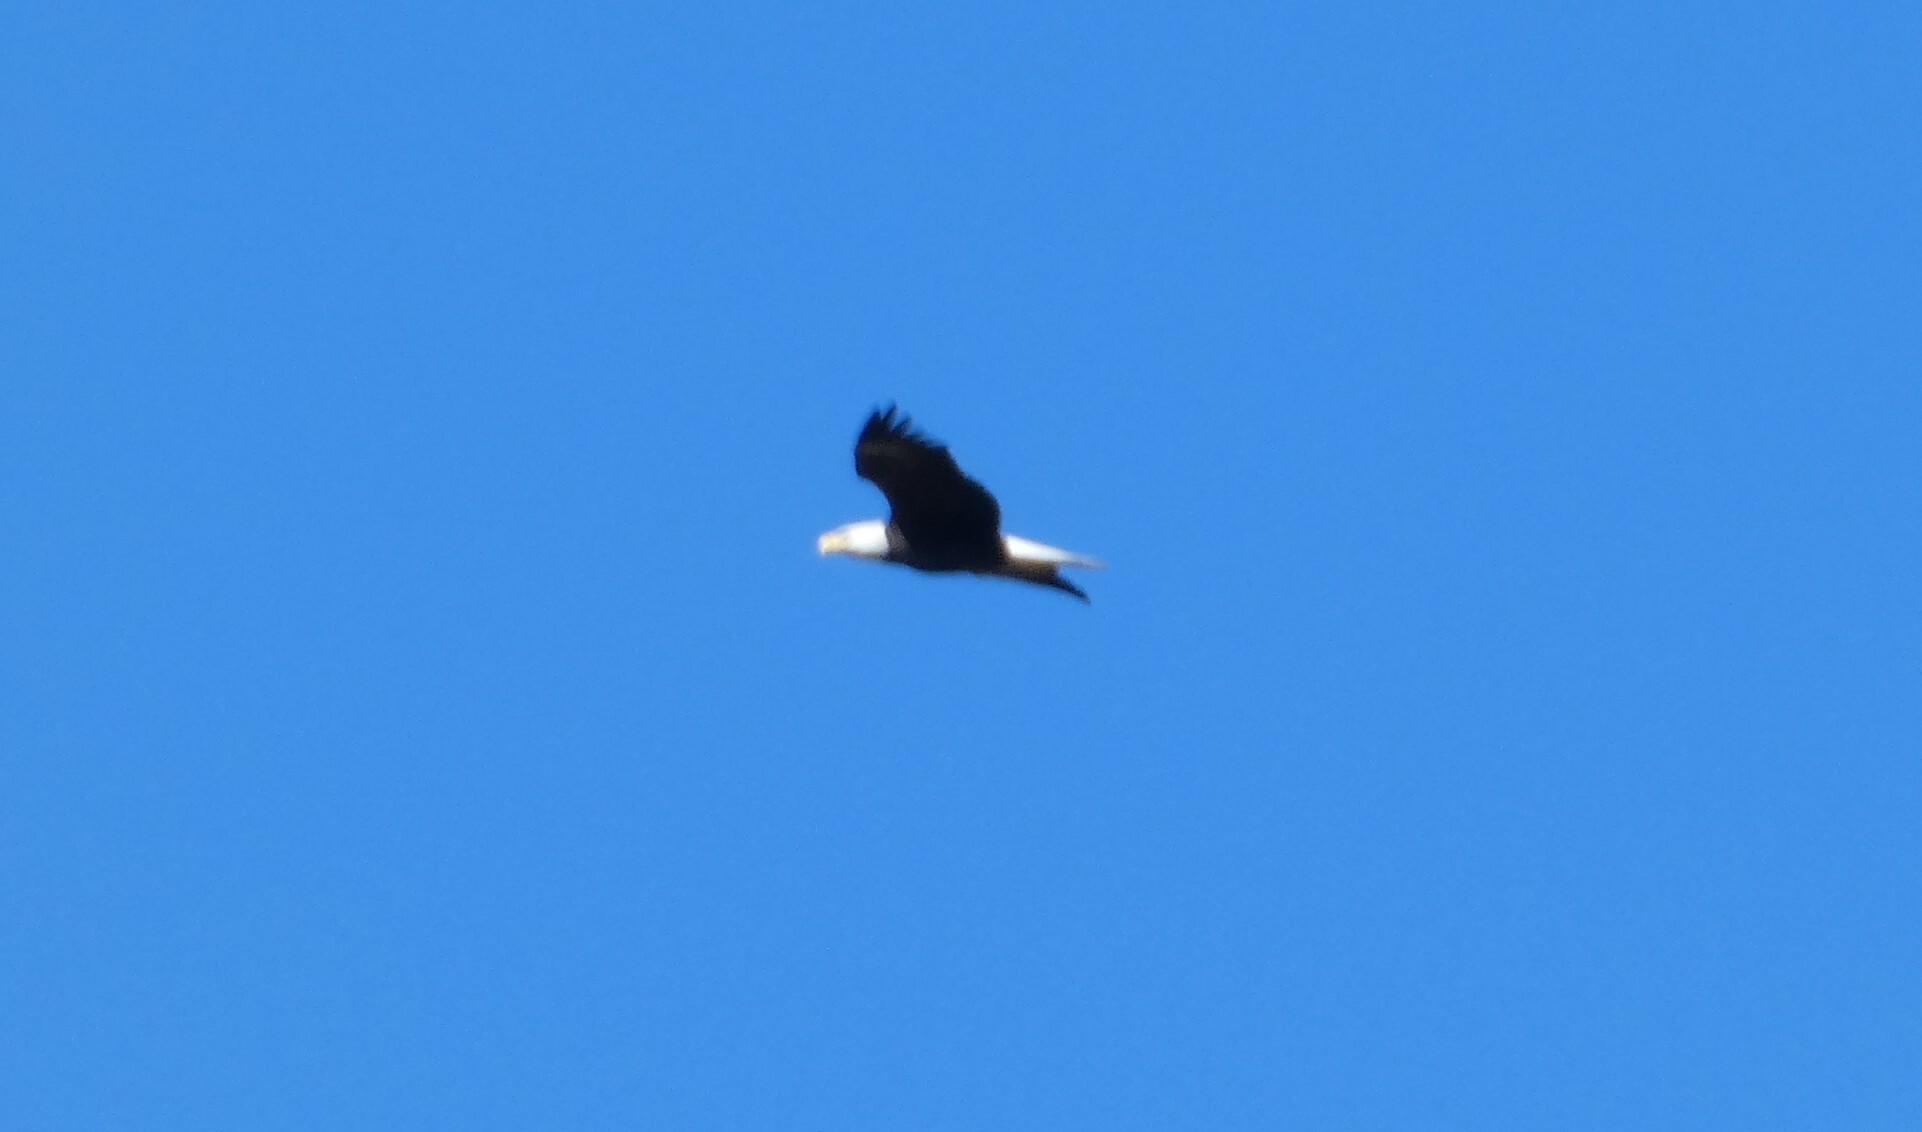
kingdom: Animalia
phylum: Chordata
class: Aves
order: Accipitriformes
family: Accipitridae
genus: Haliaeetus
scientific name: Haliaeetus leucocephalus
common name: Bald eagle
